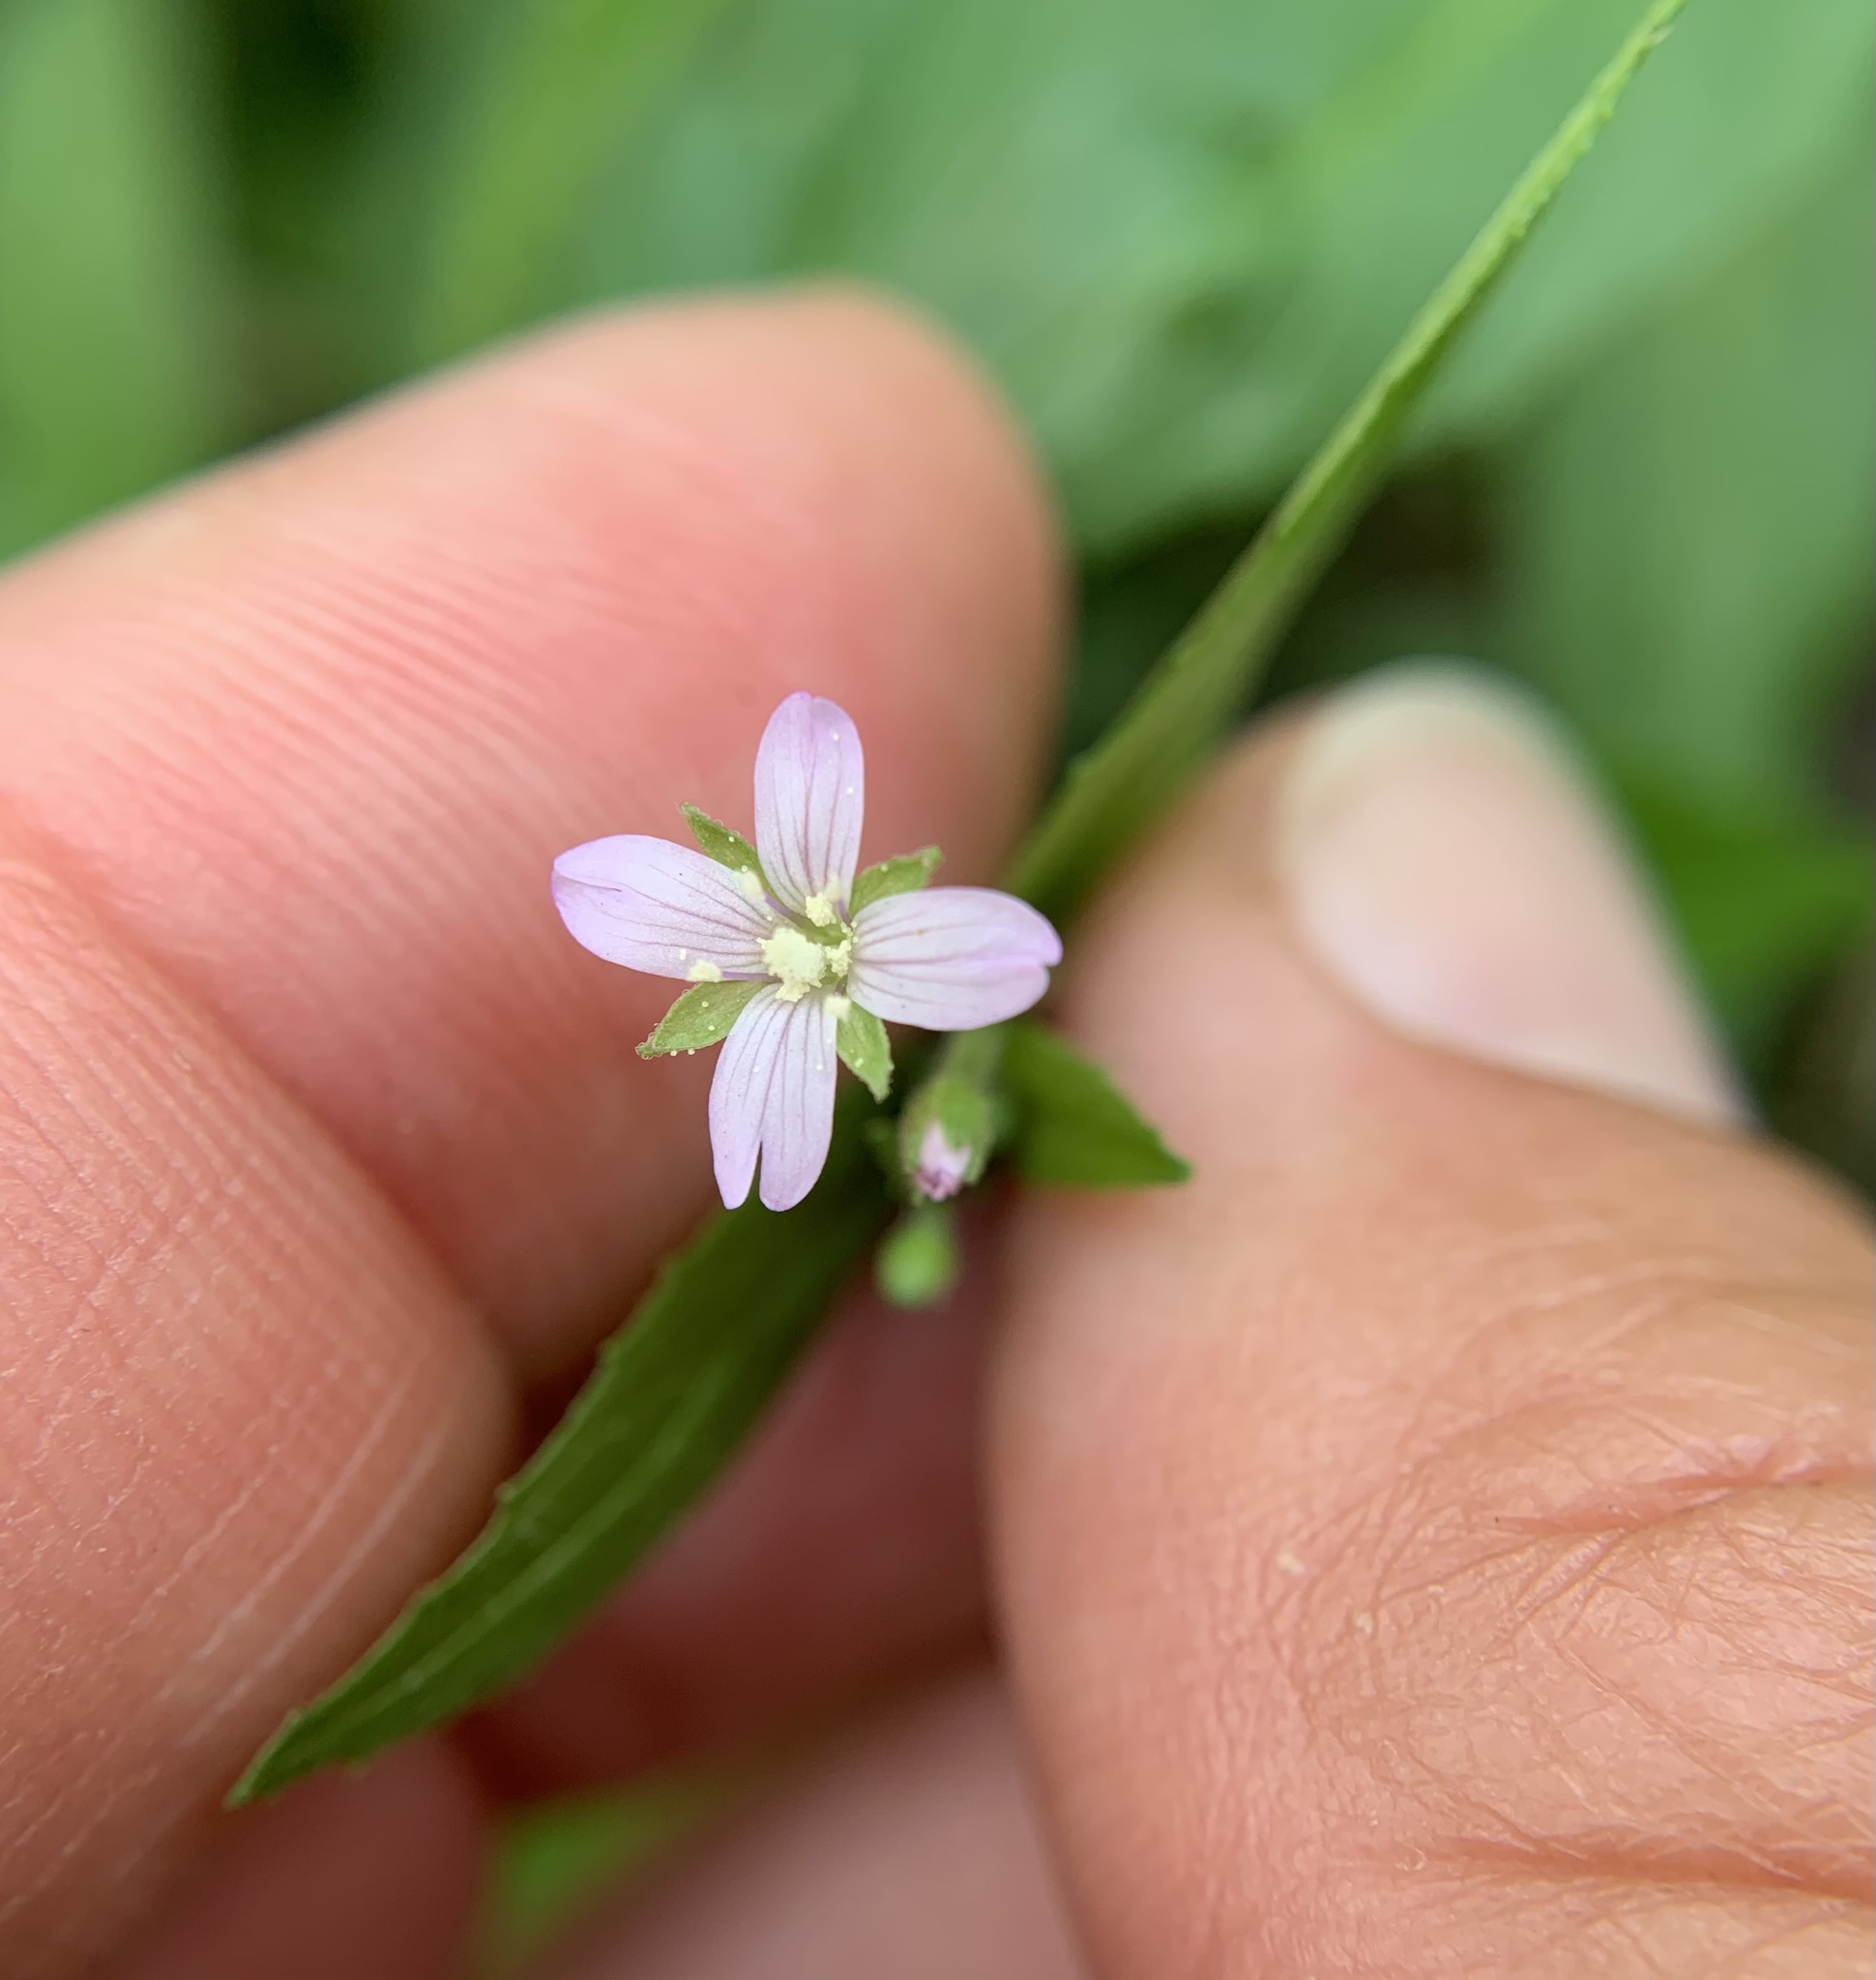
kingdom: Plantae
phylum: Tracheophyta
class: Magnoliopsida
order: Myrtales
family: Onagraceae
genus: Epilobium
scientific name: Epilobium ciliatum
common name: American willowherb
